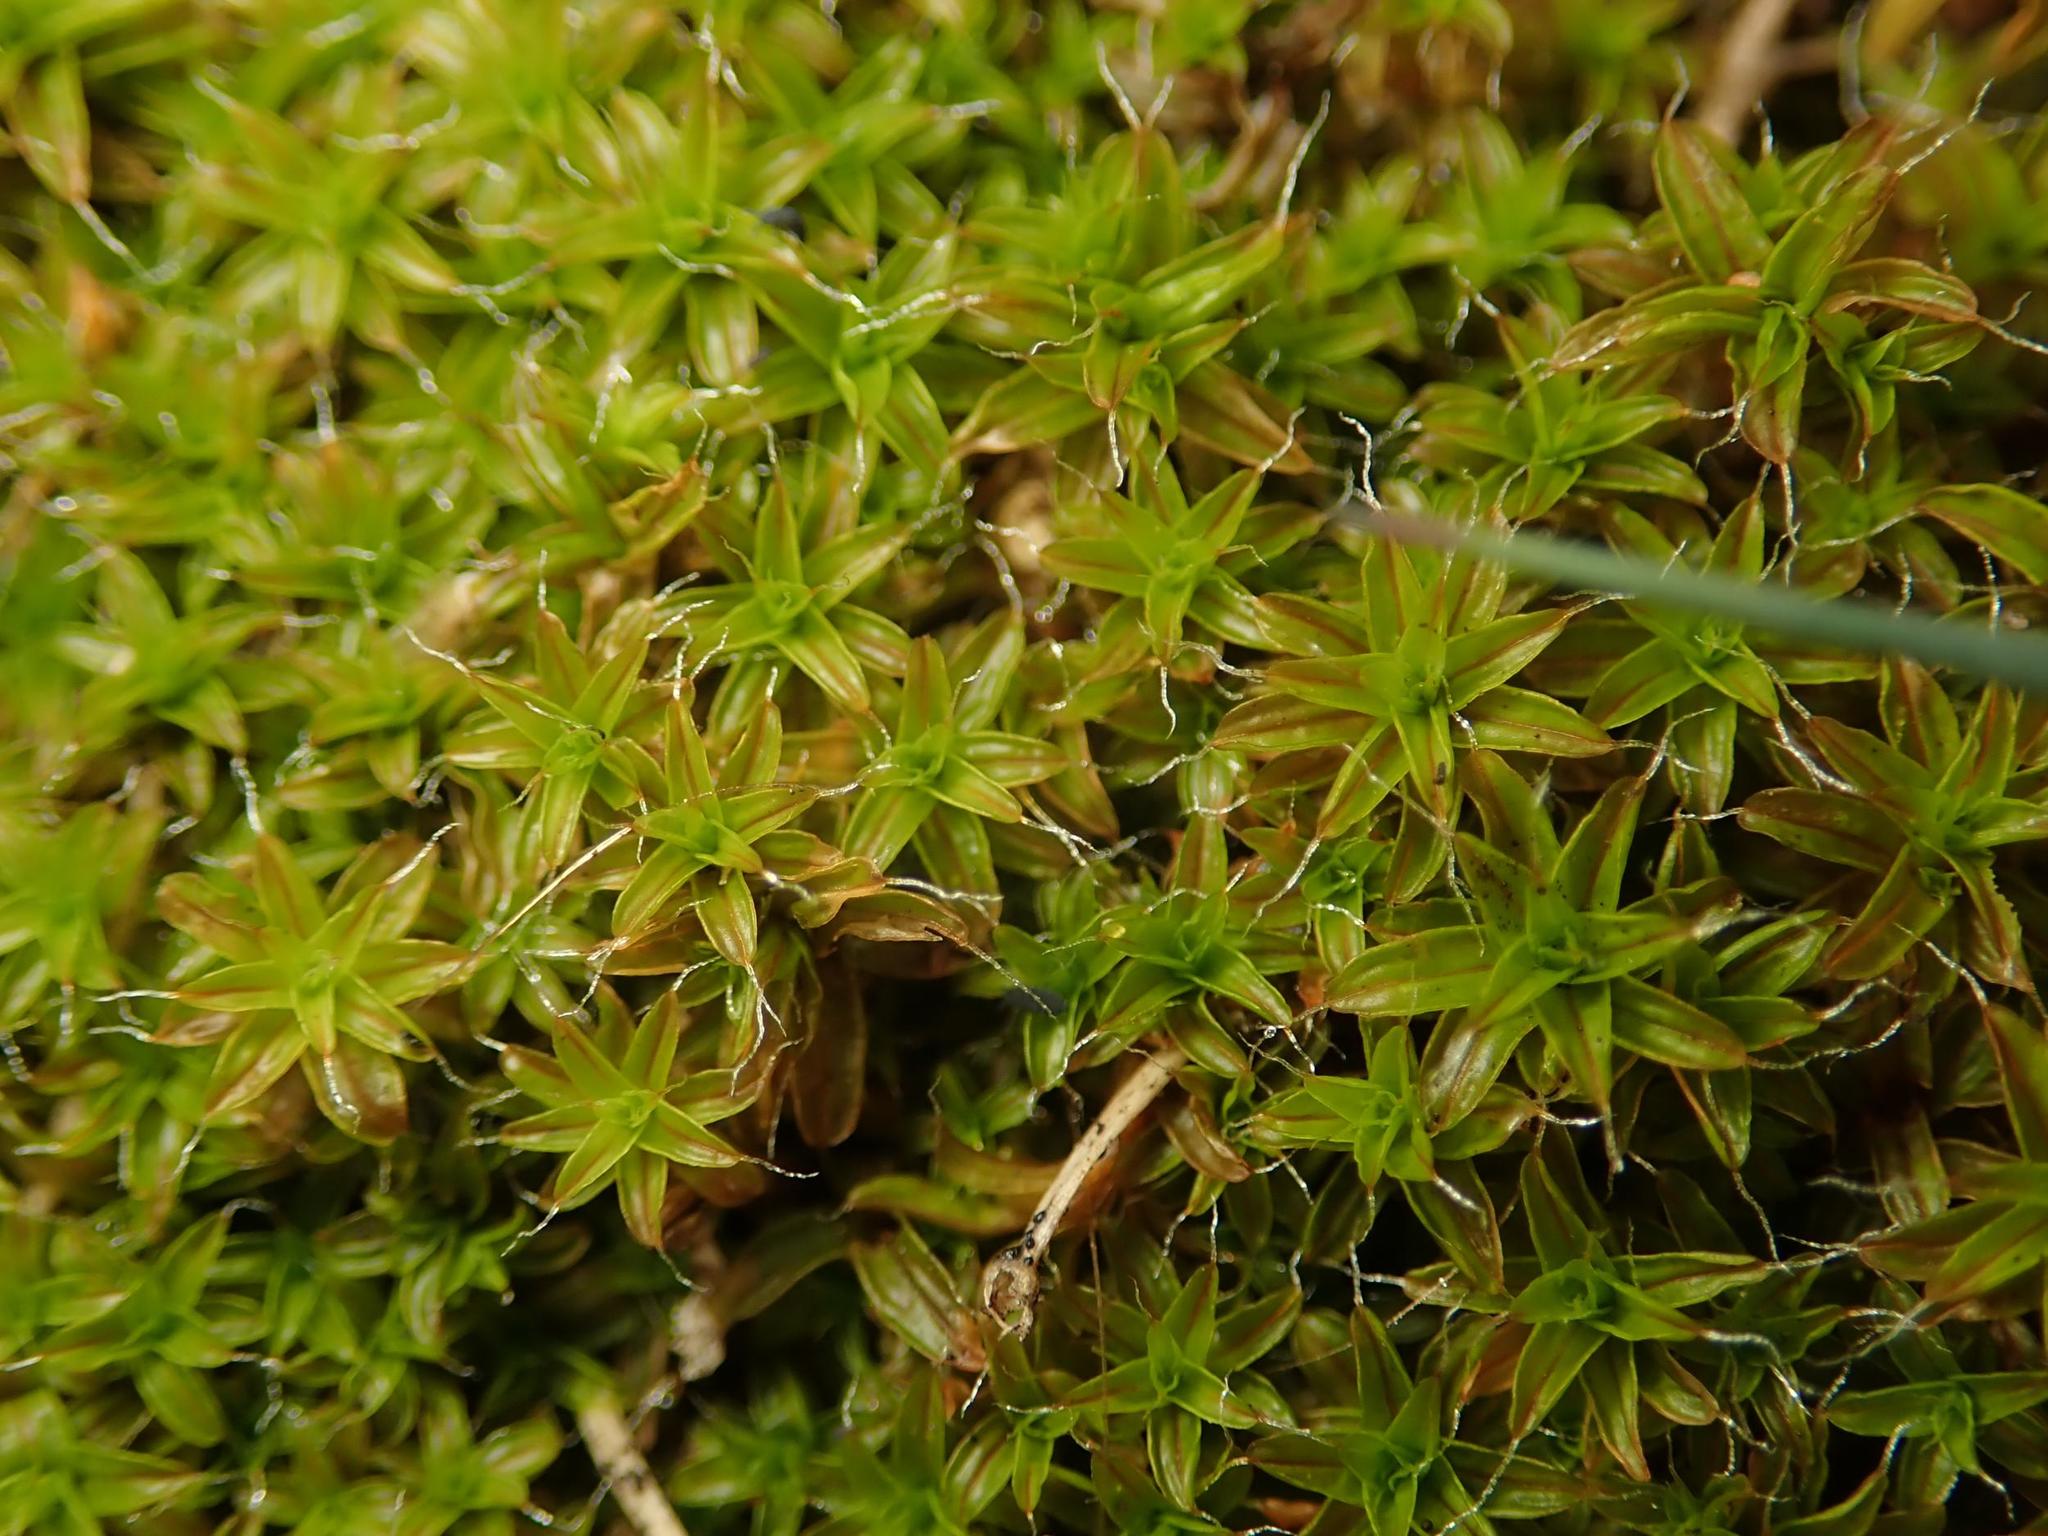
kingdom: Plantae
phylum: Bryophyta
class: Bryopsida
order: Pottiales
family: Pottiaceae
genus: Syntrichia
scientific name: Syntrichia ruralis
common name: Sidewalk screw moss
